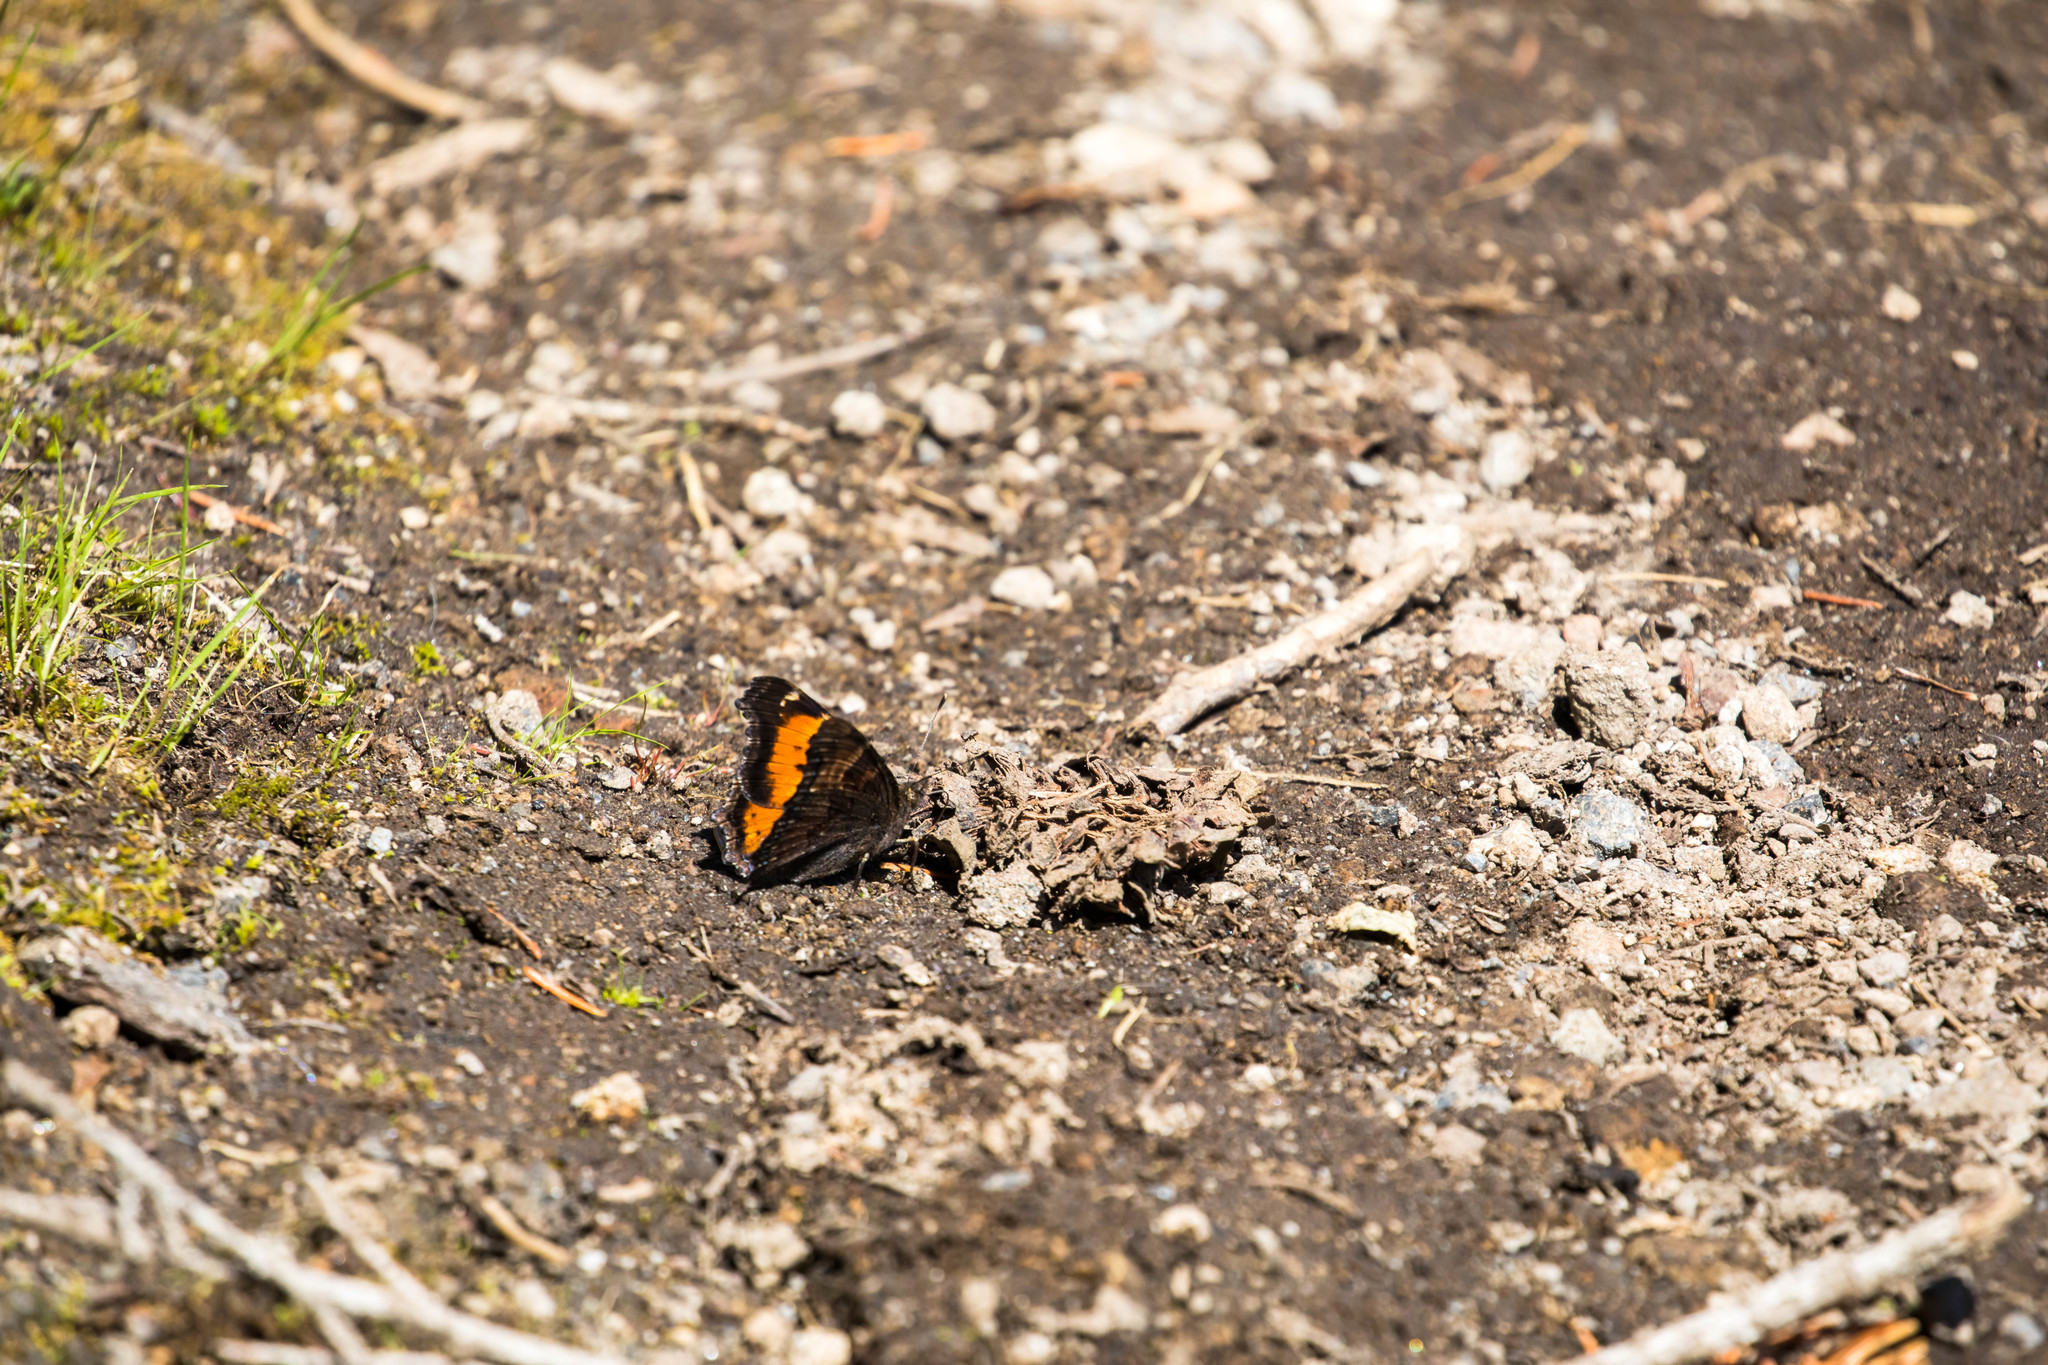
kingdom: Animalia
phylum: Arthropoda
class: Insecta
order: Lepidoptera
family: Nymphalidae
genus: Nymphalis
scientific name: Nymphalis californica
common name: California tortoiseshell
